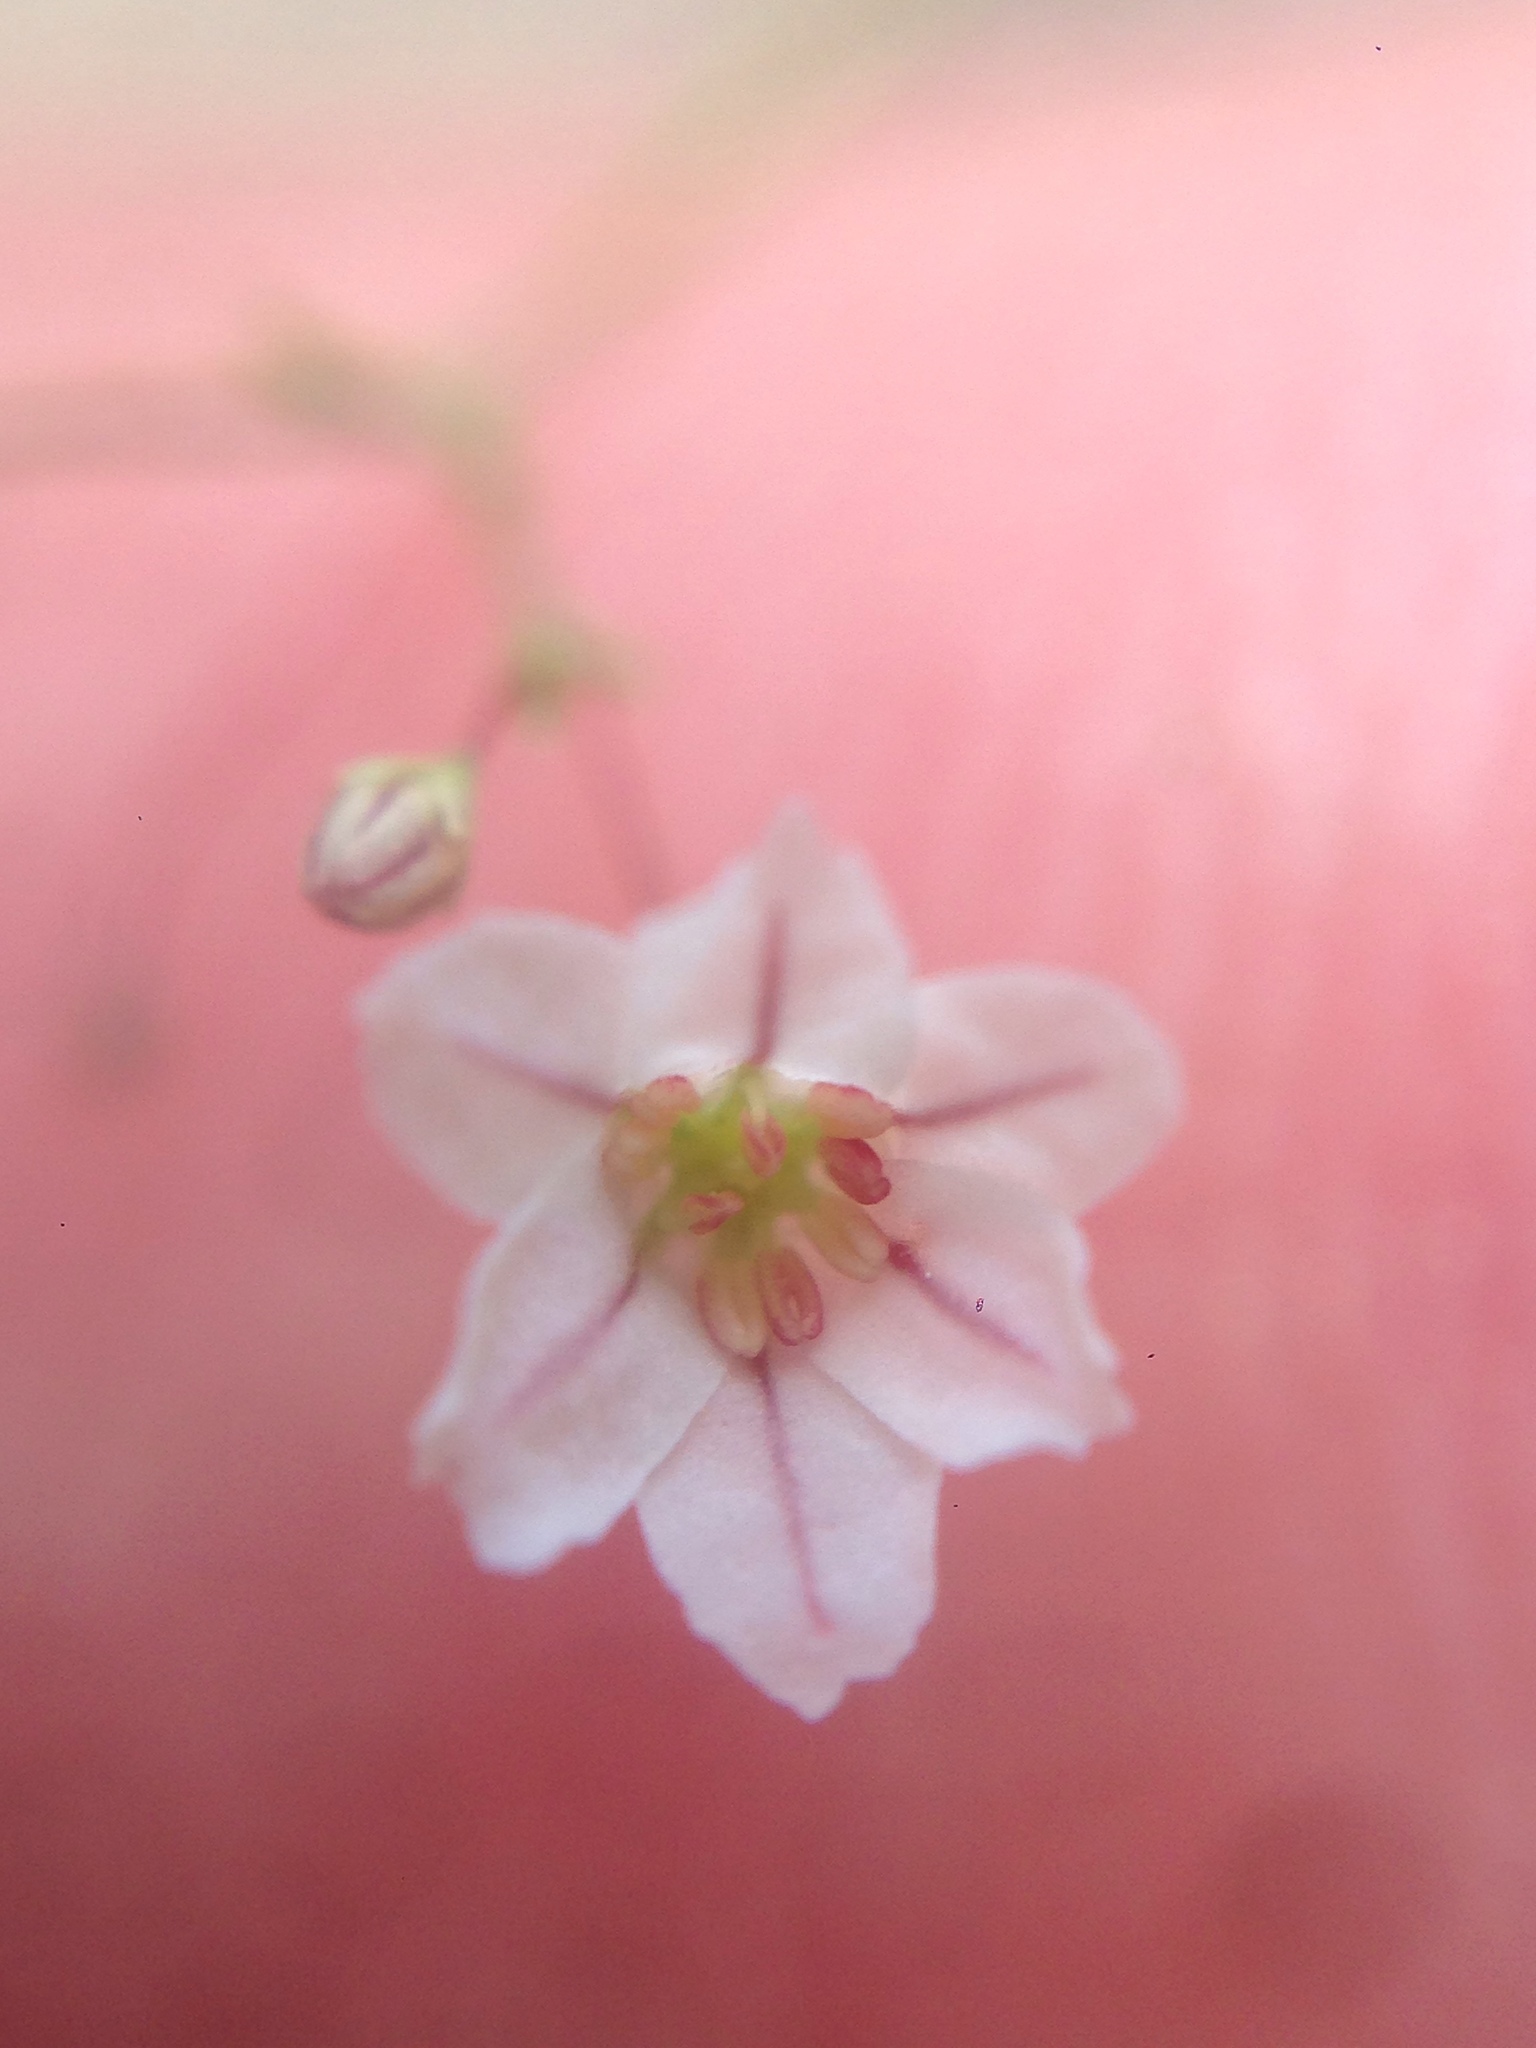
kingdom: Plantae
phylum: Tracheophyta
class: Magnoliopsida
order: Caryophyllales
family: Polygonaceae
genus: Eriogonum
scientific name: Eriogonum spergulinum
